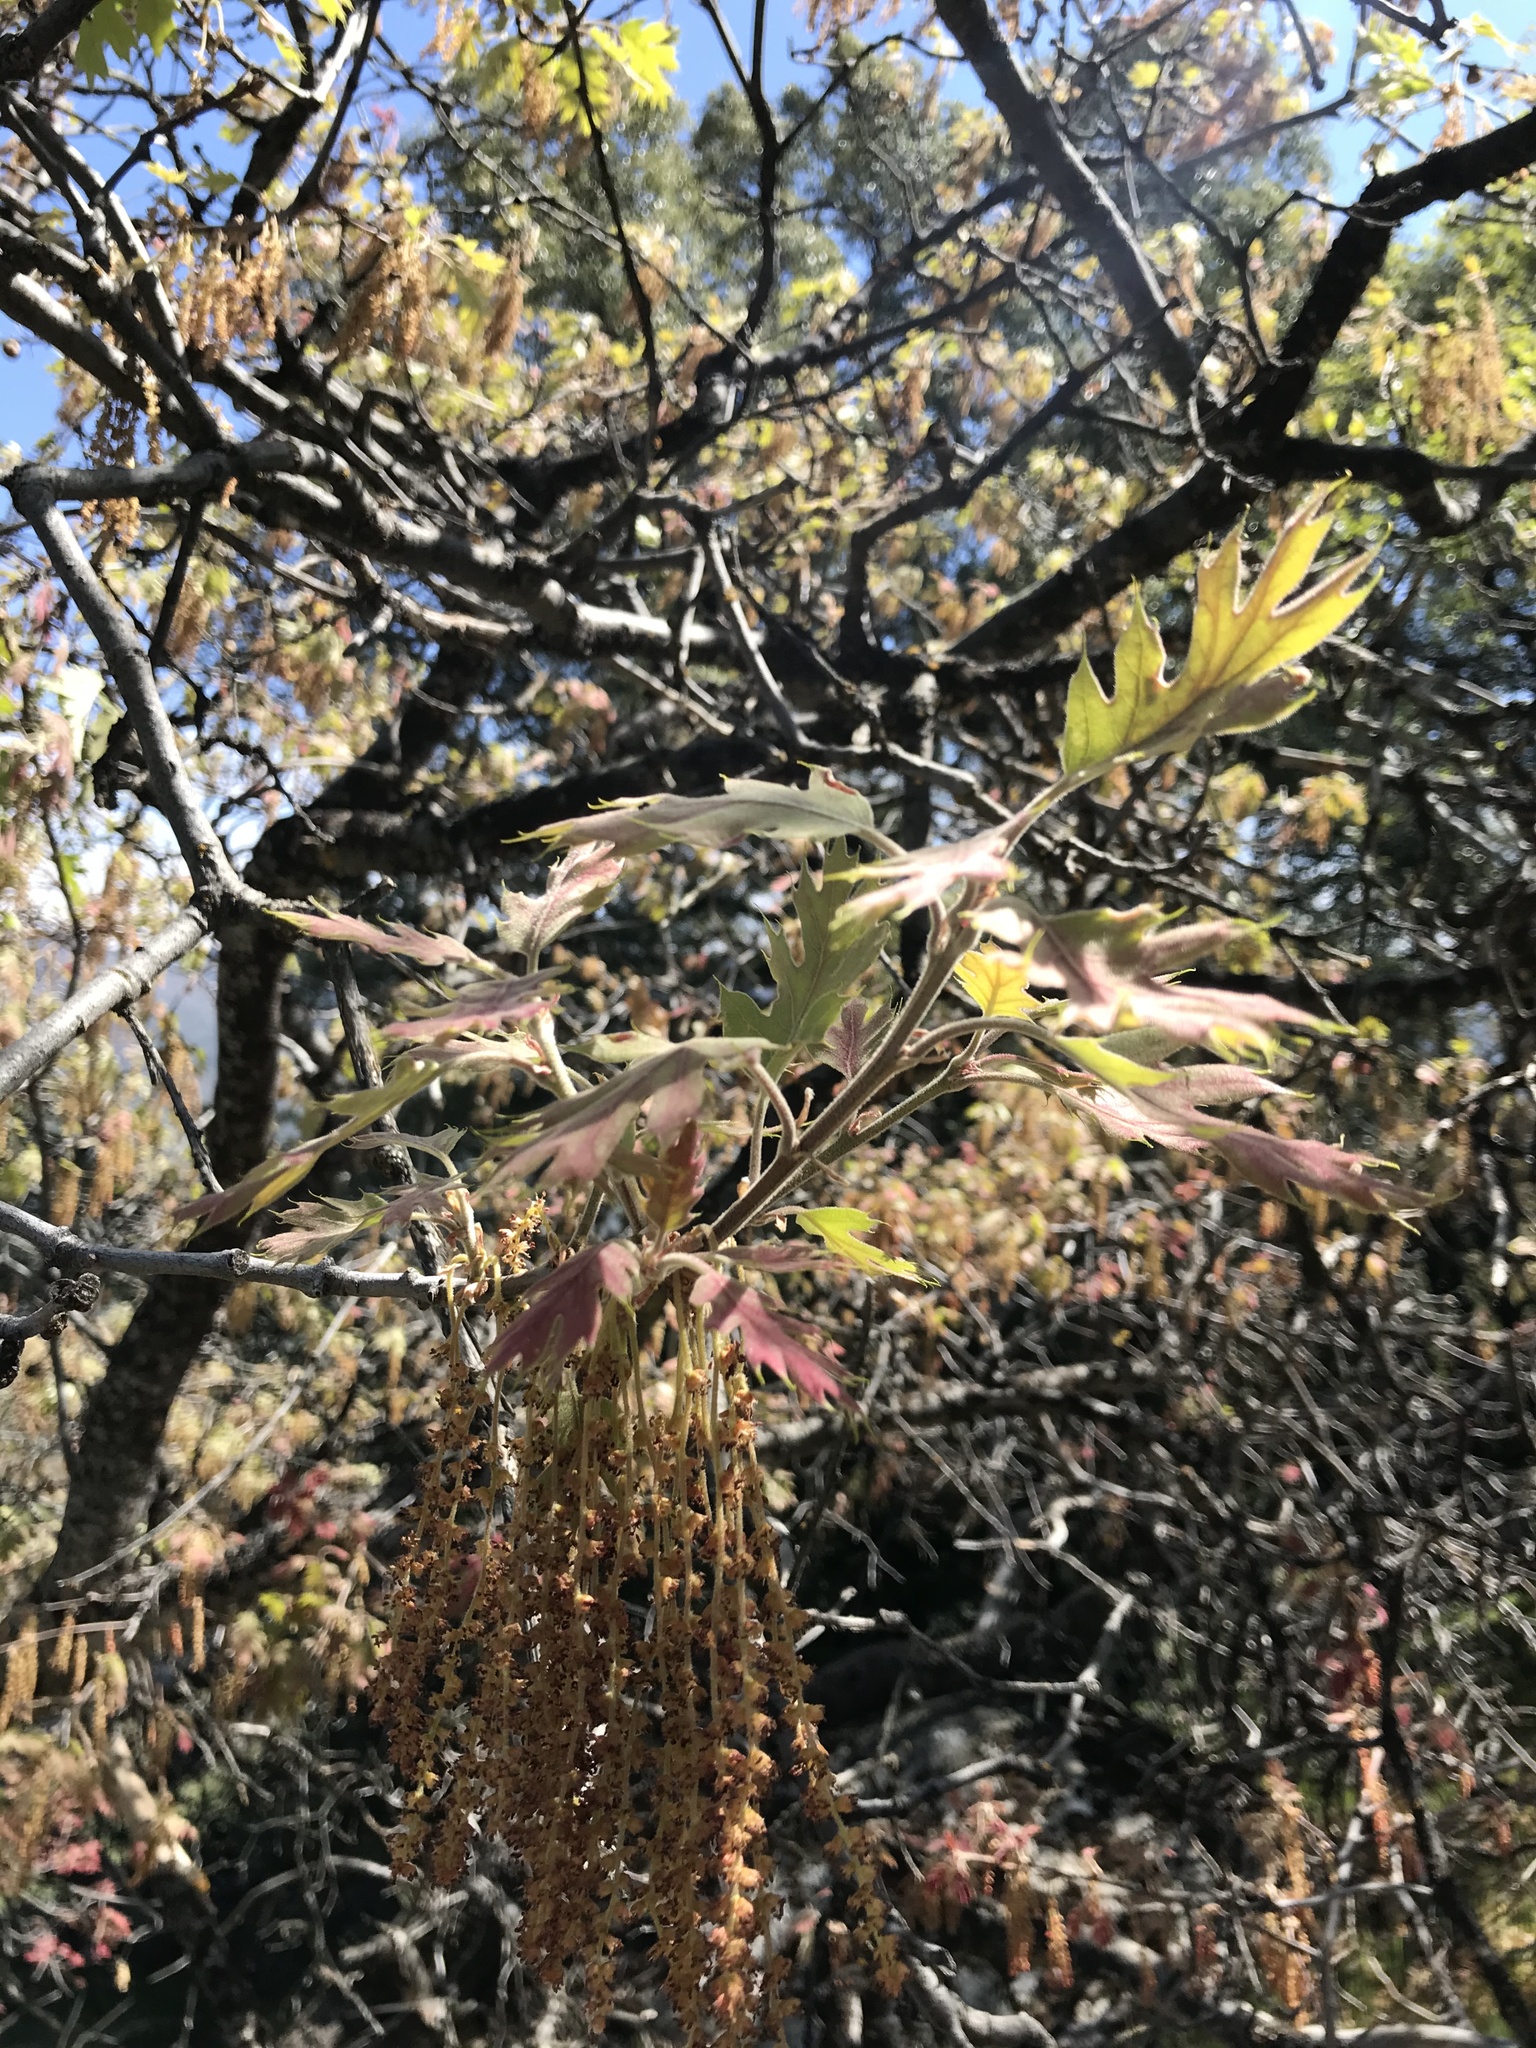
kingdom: Plantae
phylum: Tracheophyta
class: Magnoliopsida
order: Fagales
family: Fagaceae
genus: Quercus
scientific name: Quercus kelloggii
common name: California black oak
